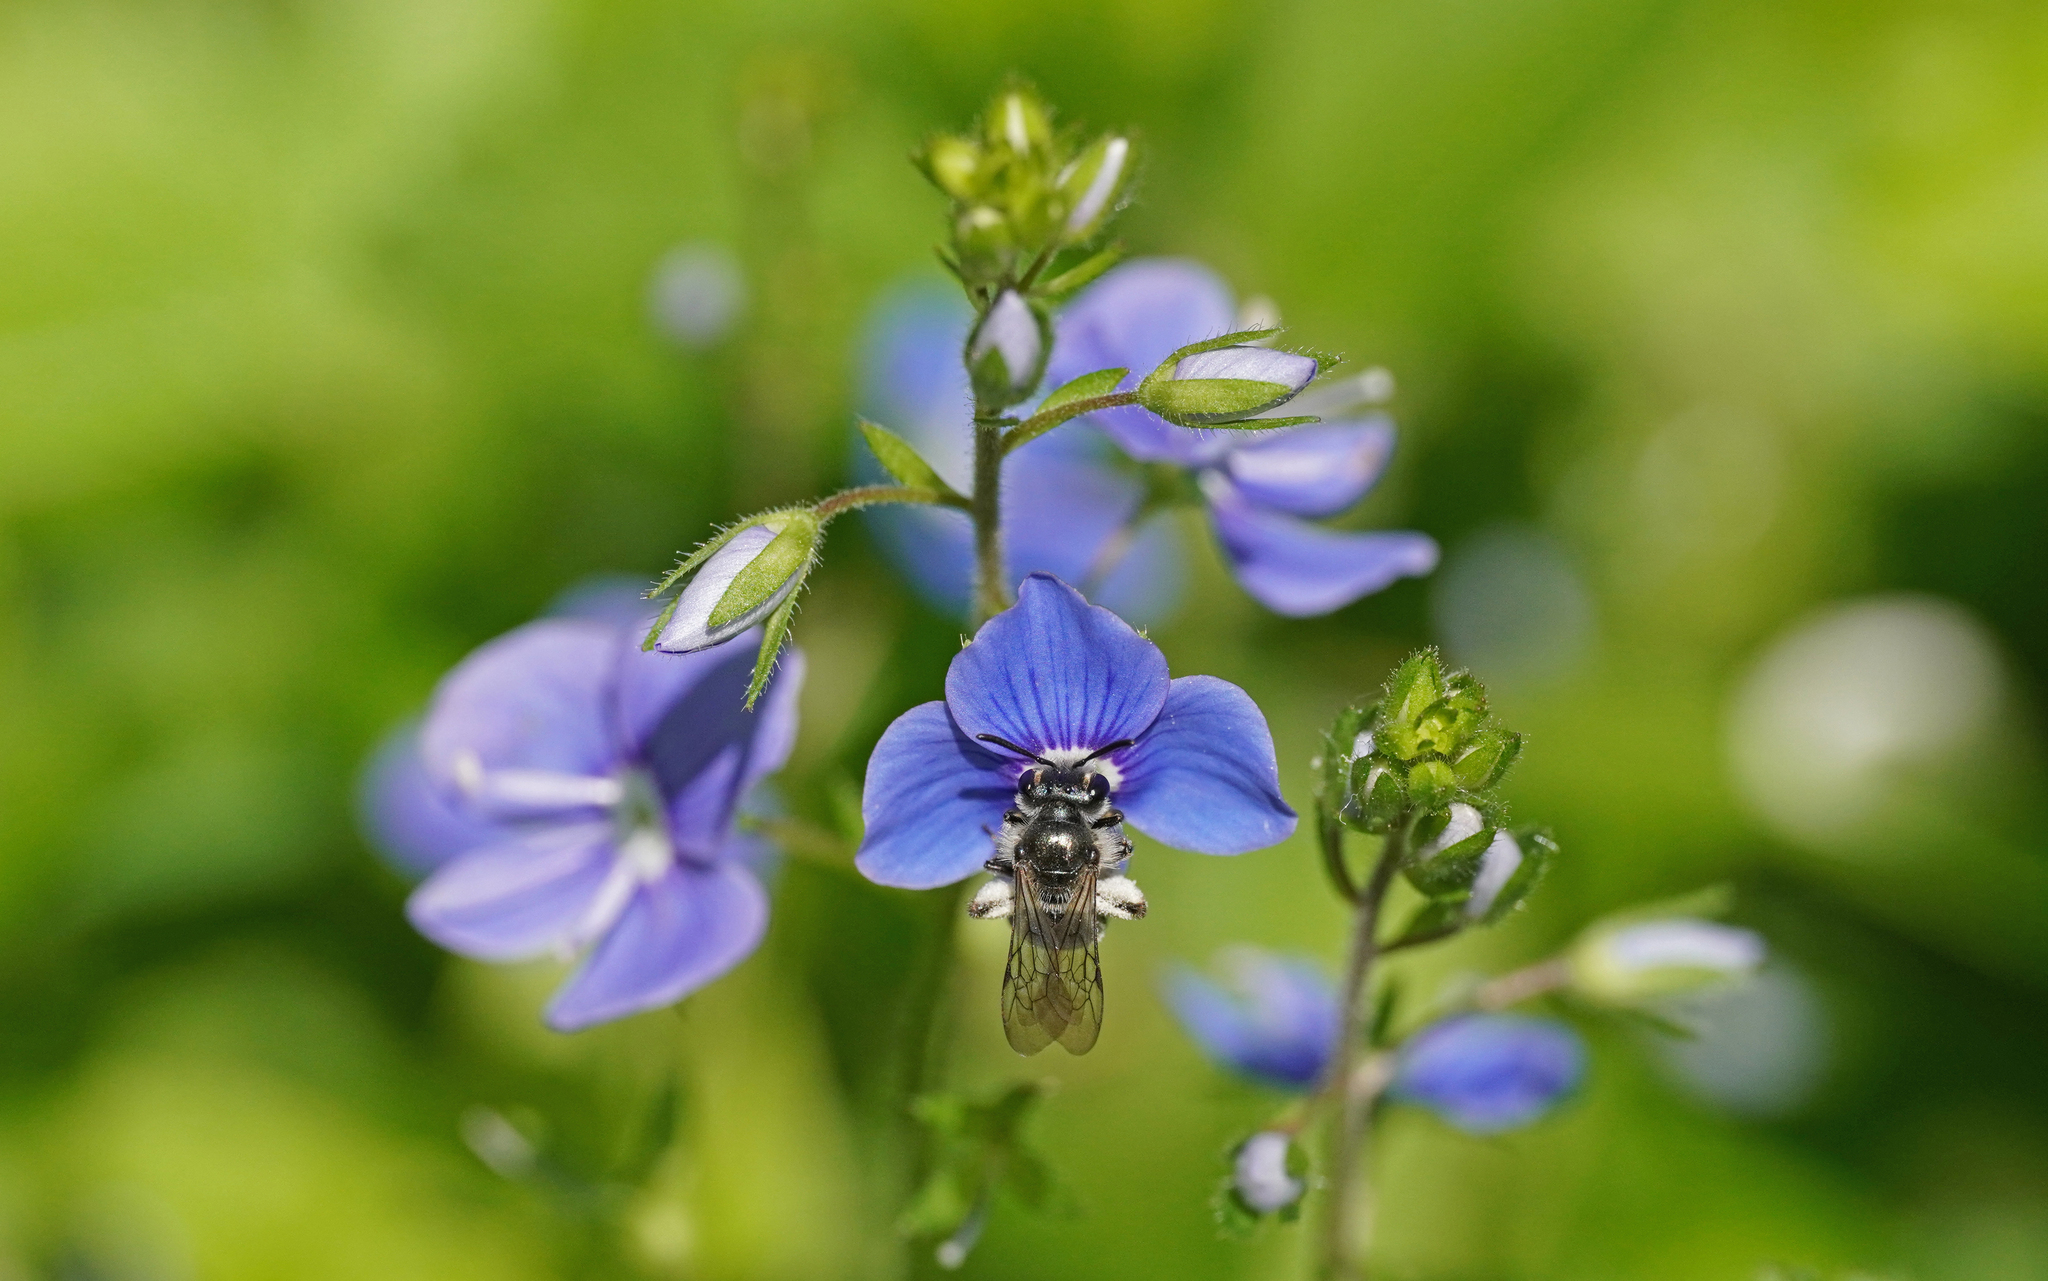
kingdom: Animalia
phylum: Arthropoda
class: Insecta
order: Hymenoptera
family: Andrenidae
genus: Andrena
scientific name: Andrena viridescens
